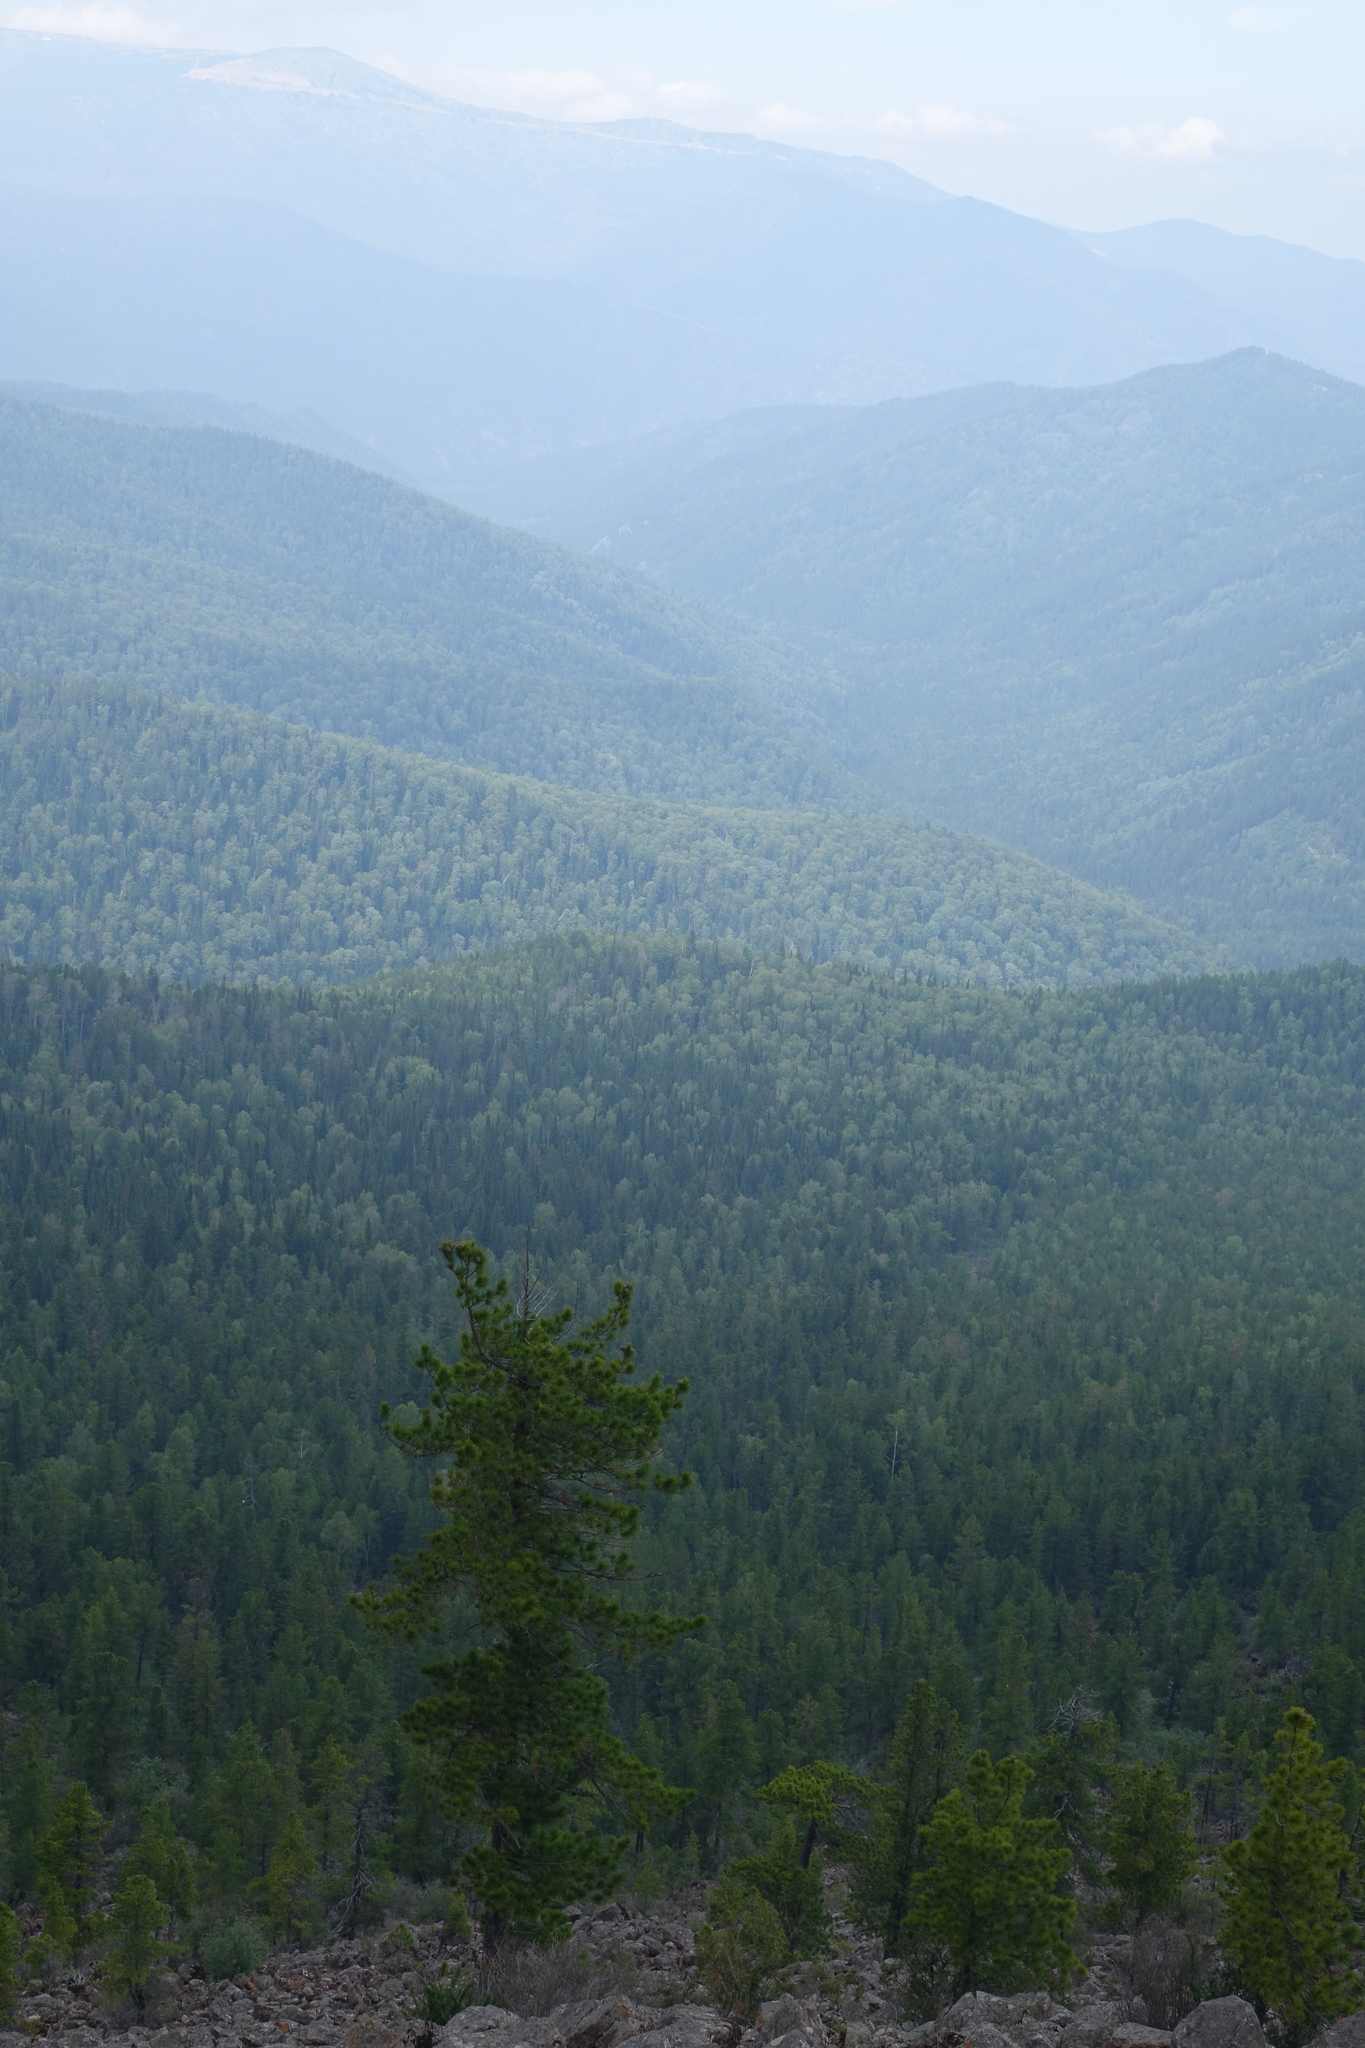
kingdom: Plantae
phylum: Tracheophyta
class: Pinopsida
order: Pinales
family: Pinaceae
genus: Pinus
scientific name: Pinus sibirica
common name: Siberian pine
